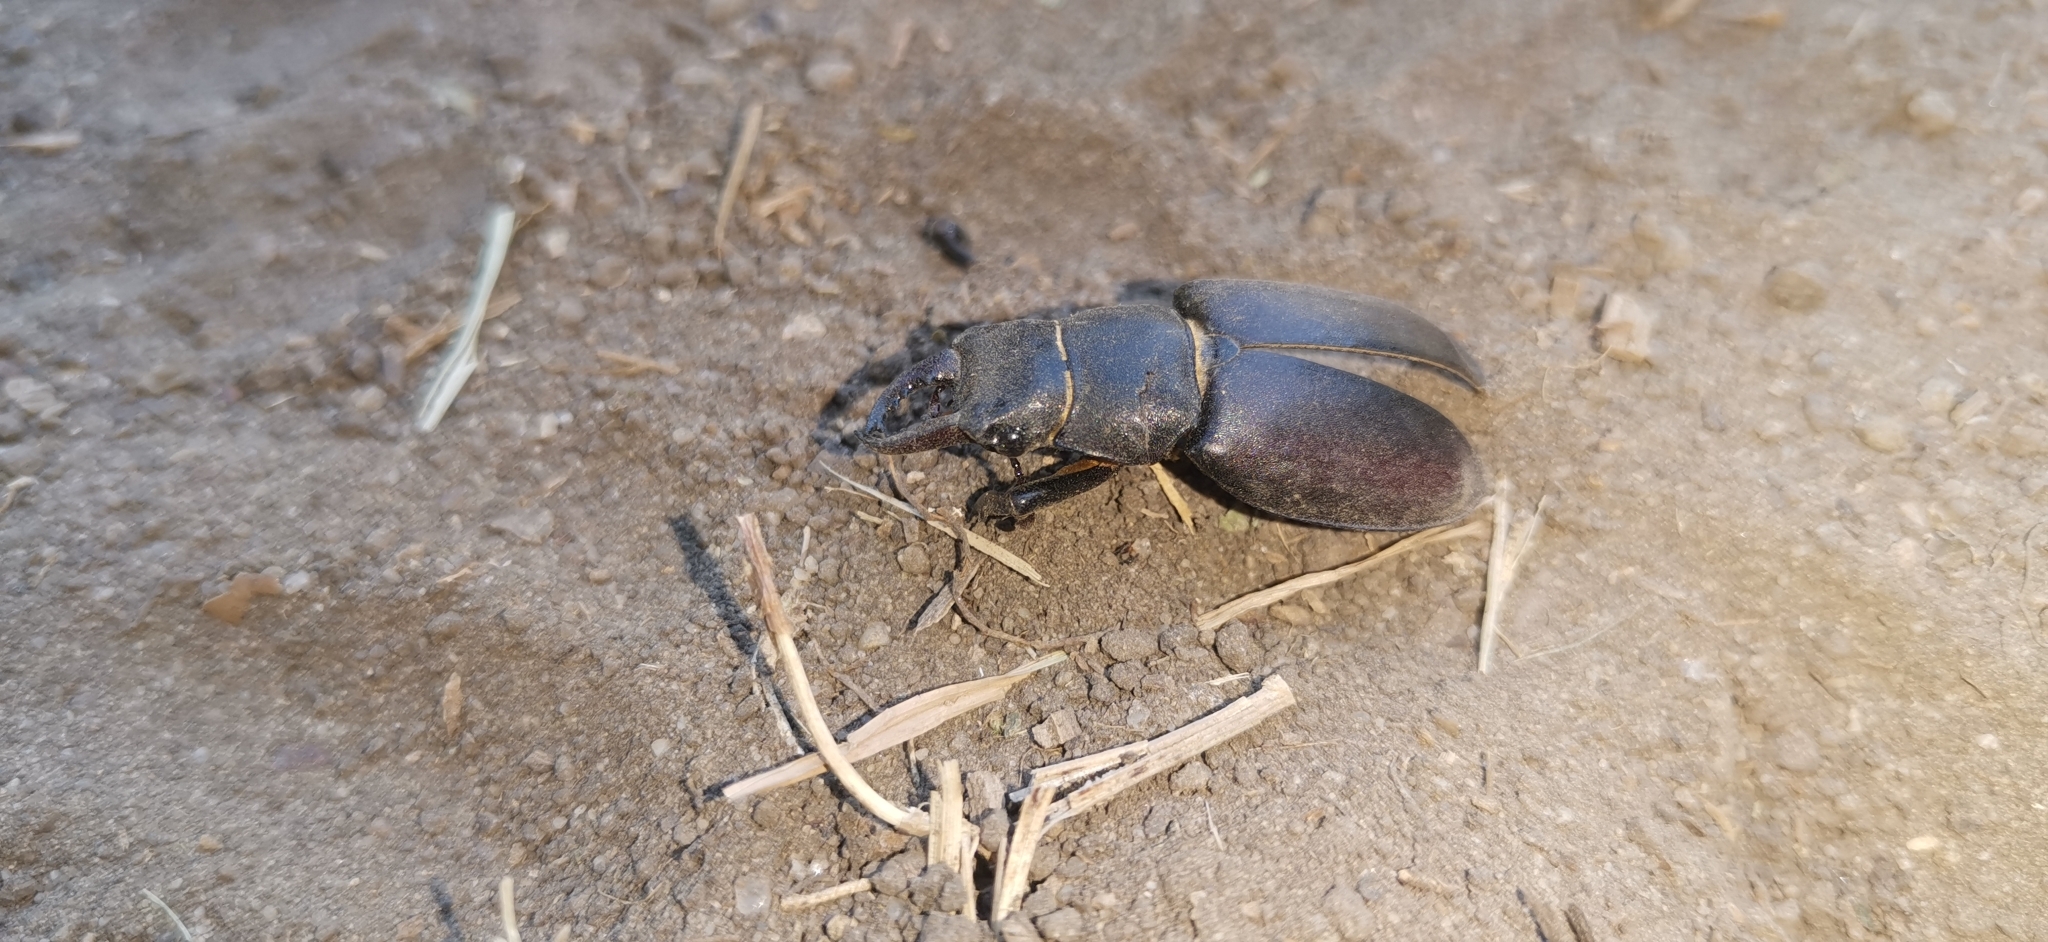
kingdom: Animalia
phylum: Arthropoda
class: Insecta
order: Coleoptera
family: Lucanidae
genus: Lucanus
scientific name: Lucanus tetraodon
